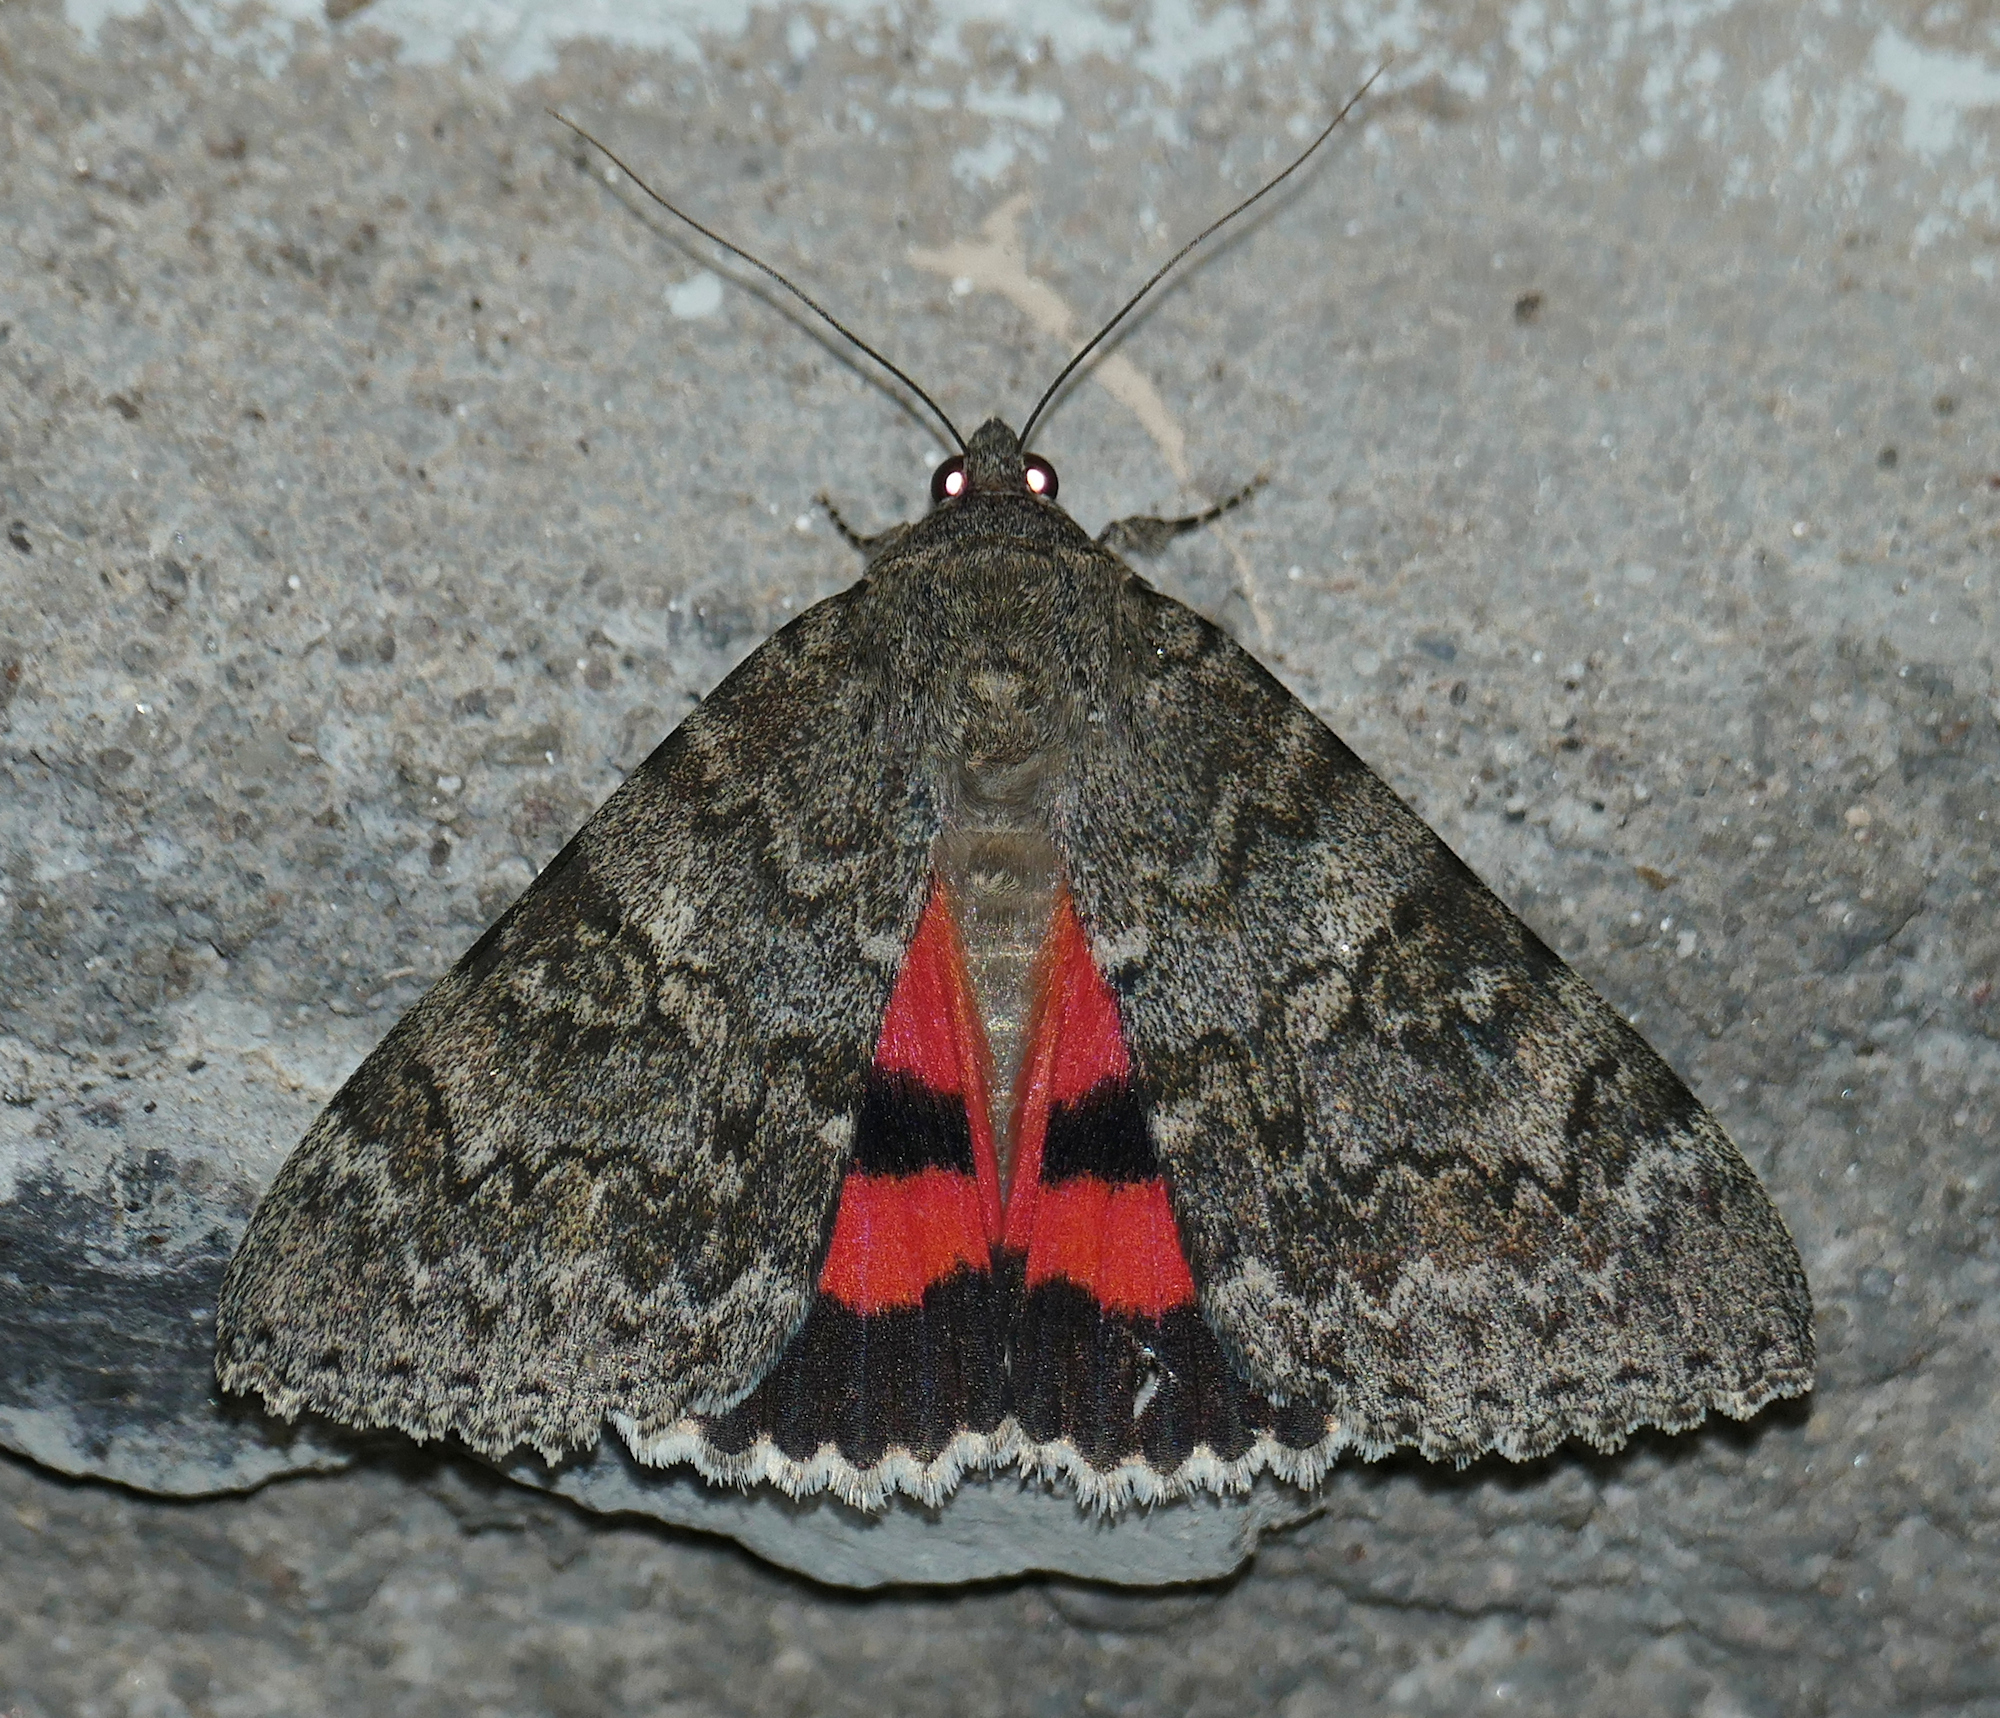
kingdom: Animalia
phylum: Arthropoda
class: Insecta
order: Lepidoptera
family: Erebidae
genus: Catocala
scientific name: Catocala californica
